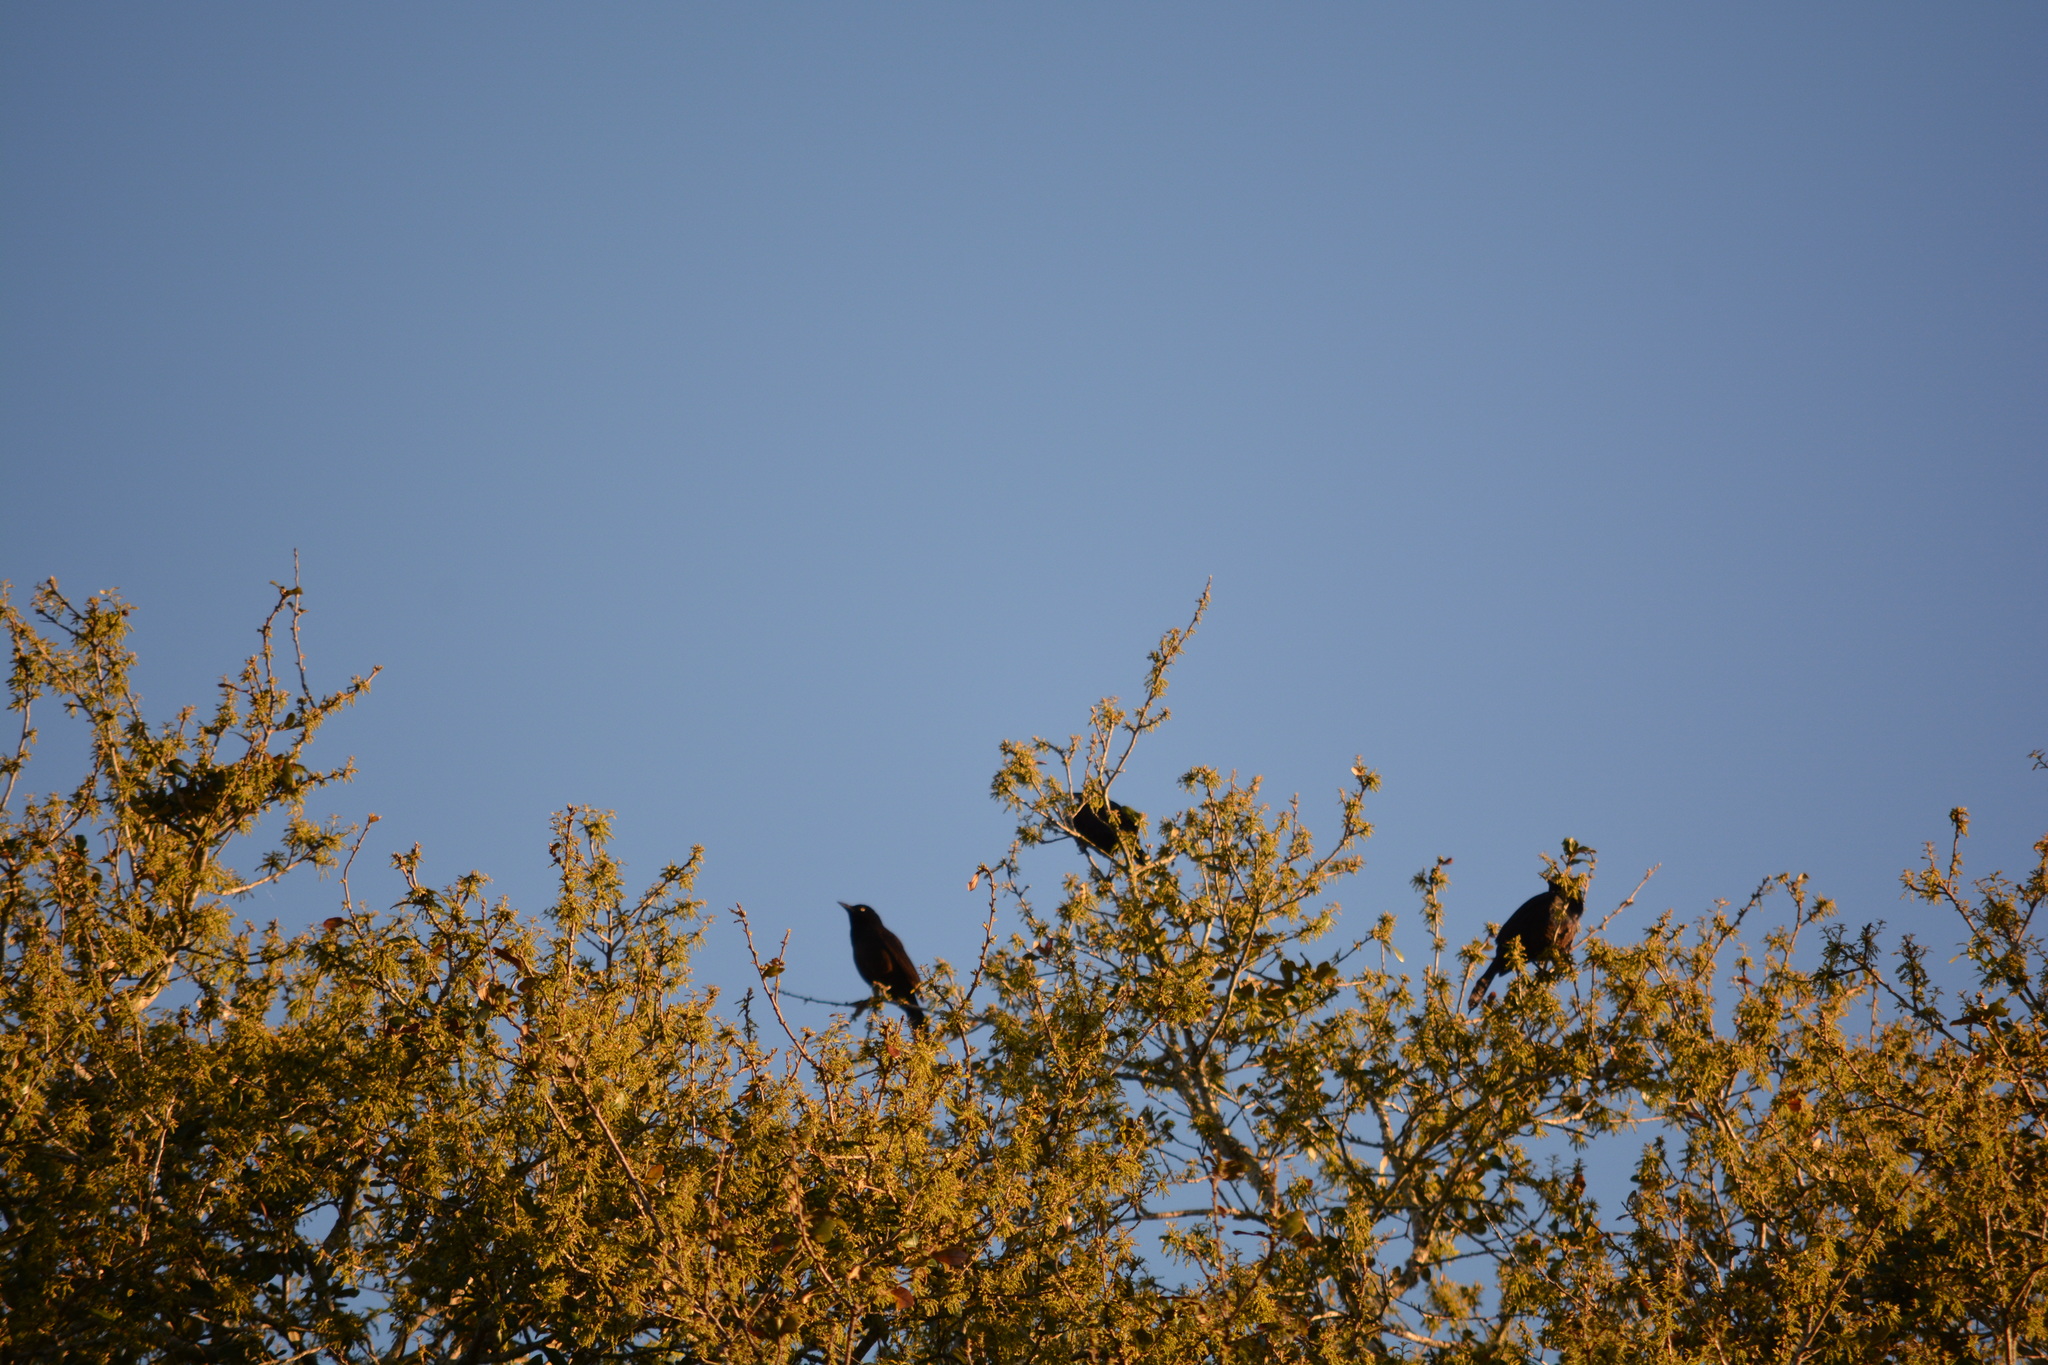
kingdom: Animalia
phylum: Chordata
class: Aves
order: Passeriformes
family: Icteridae
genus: Quiscalus
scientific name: Quiscalus quiscula
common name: Common grackle
